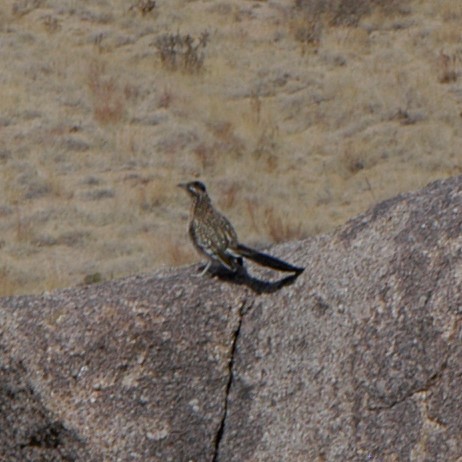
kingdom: Animalia
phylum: Chordata
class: Aves
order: Cuculiformes
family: Cuculidae
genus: Geococcyx
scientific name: Geococcyx californianus
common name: Greater roadrunner
